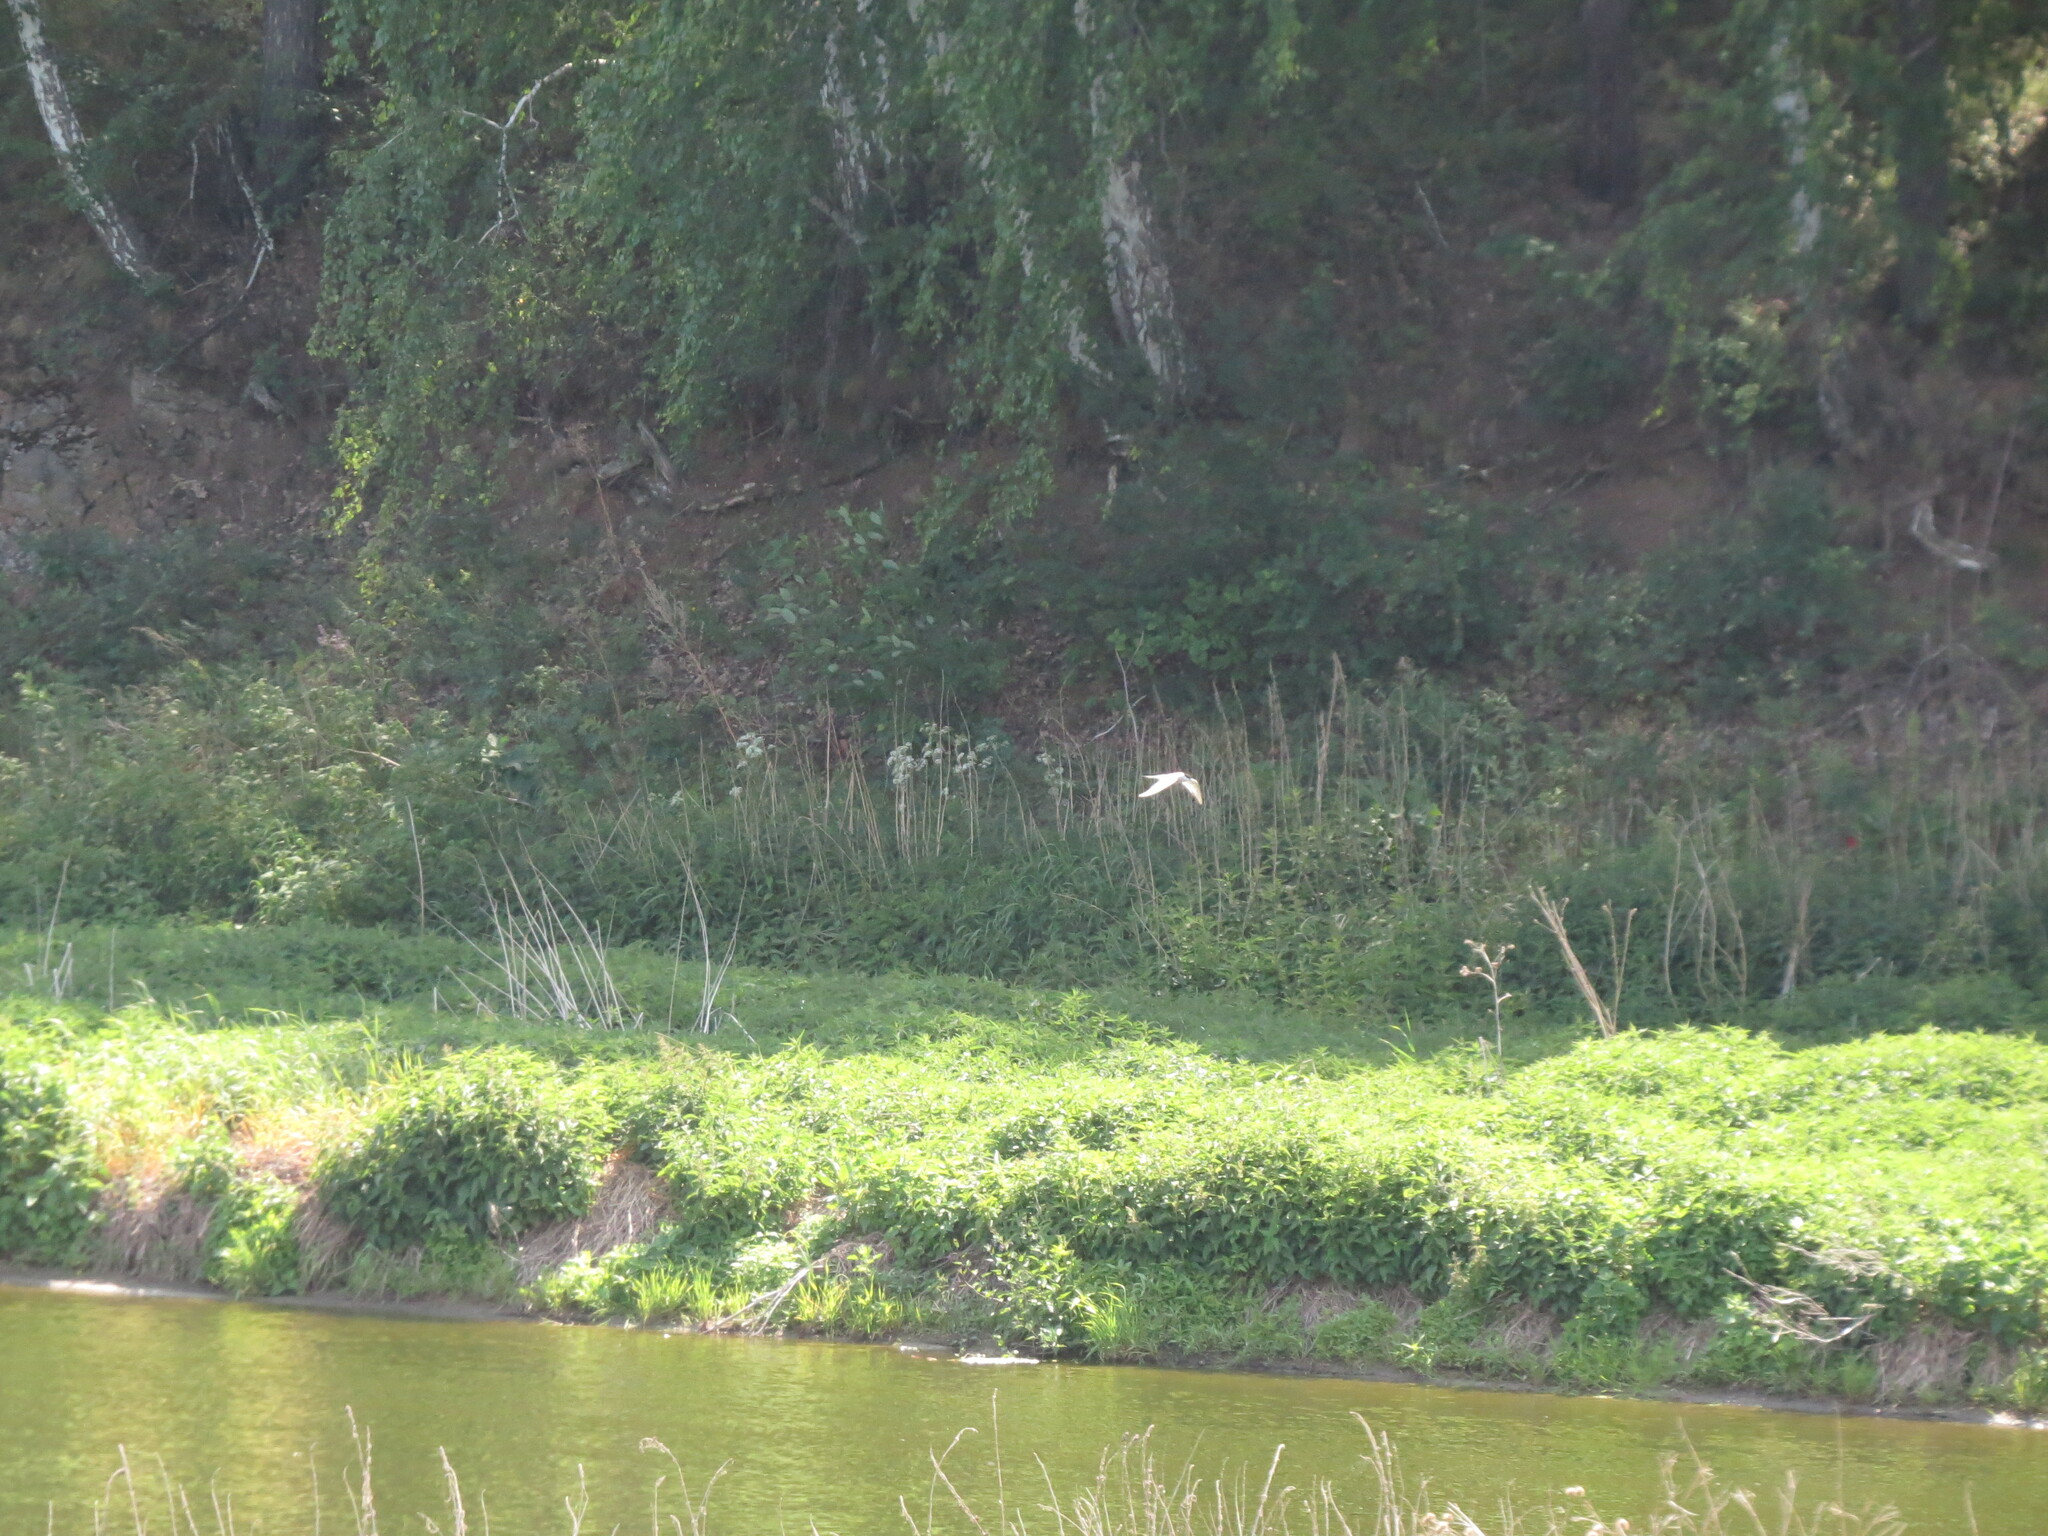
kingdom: Animalia
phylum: Chordata
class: Aves
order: Charadriiformes
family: Laridae
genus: Sterna
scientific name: Sterna hirundo
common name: Common tern
